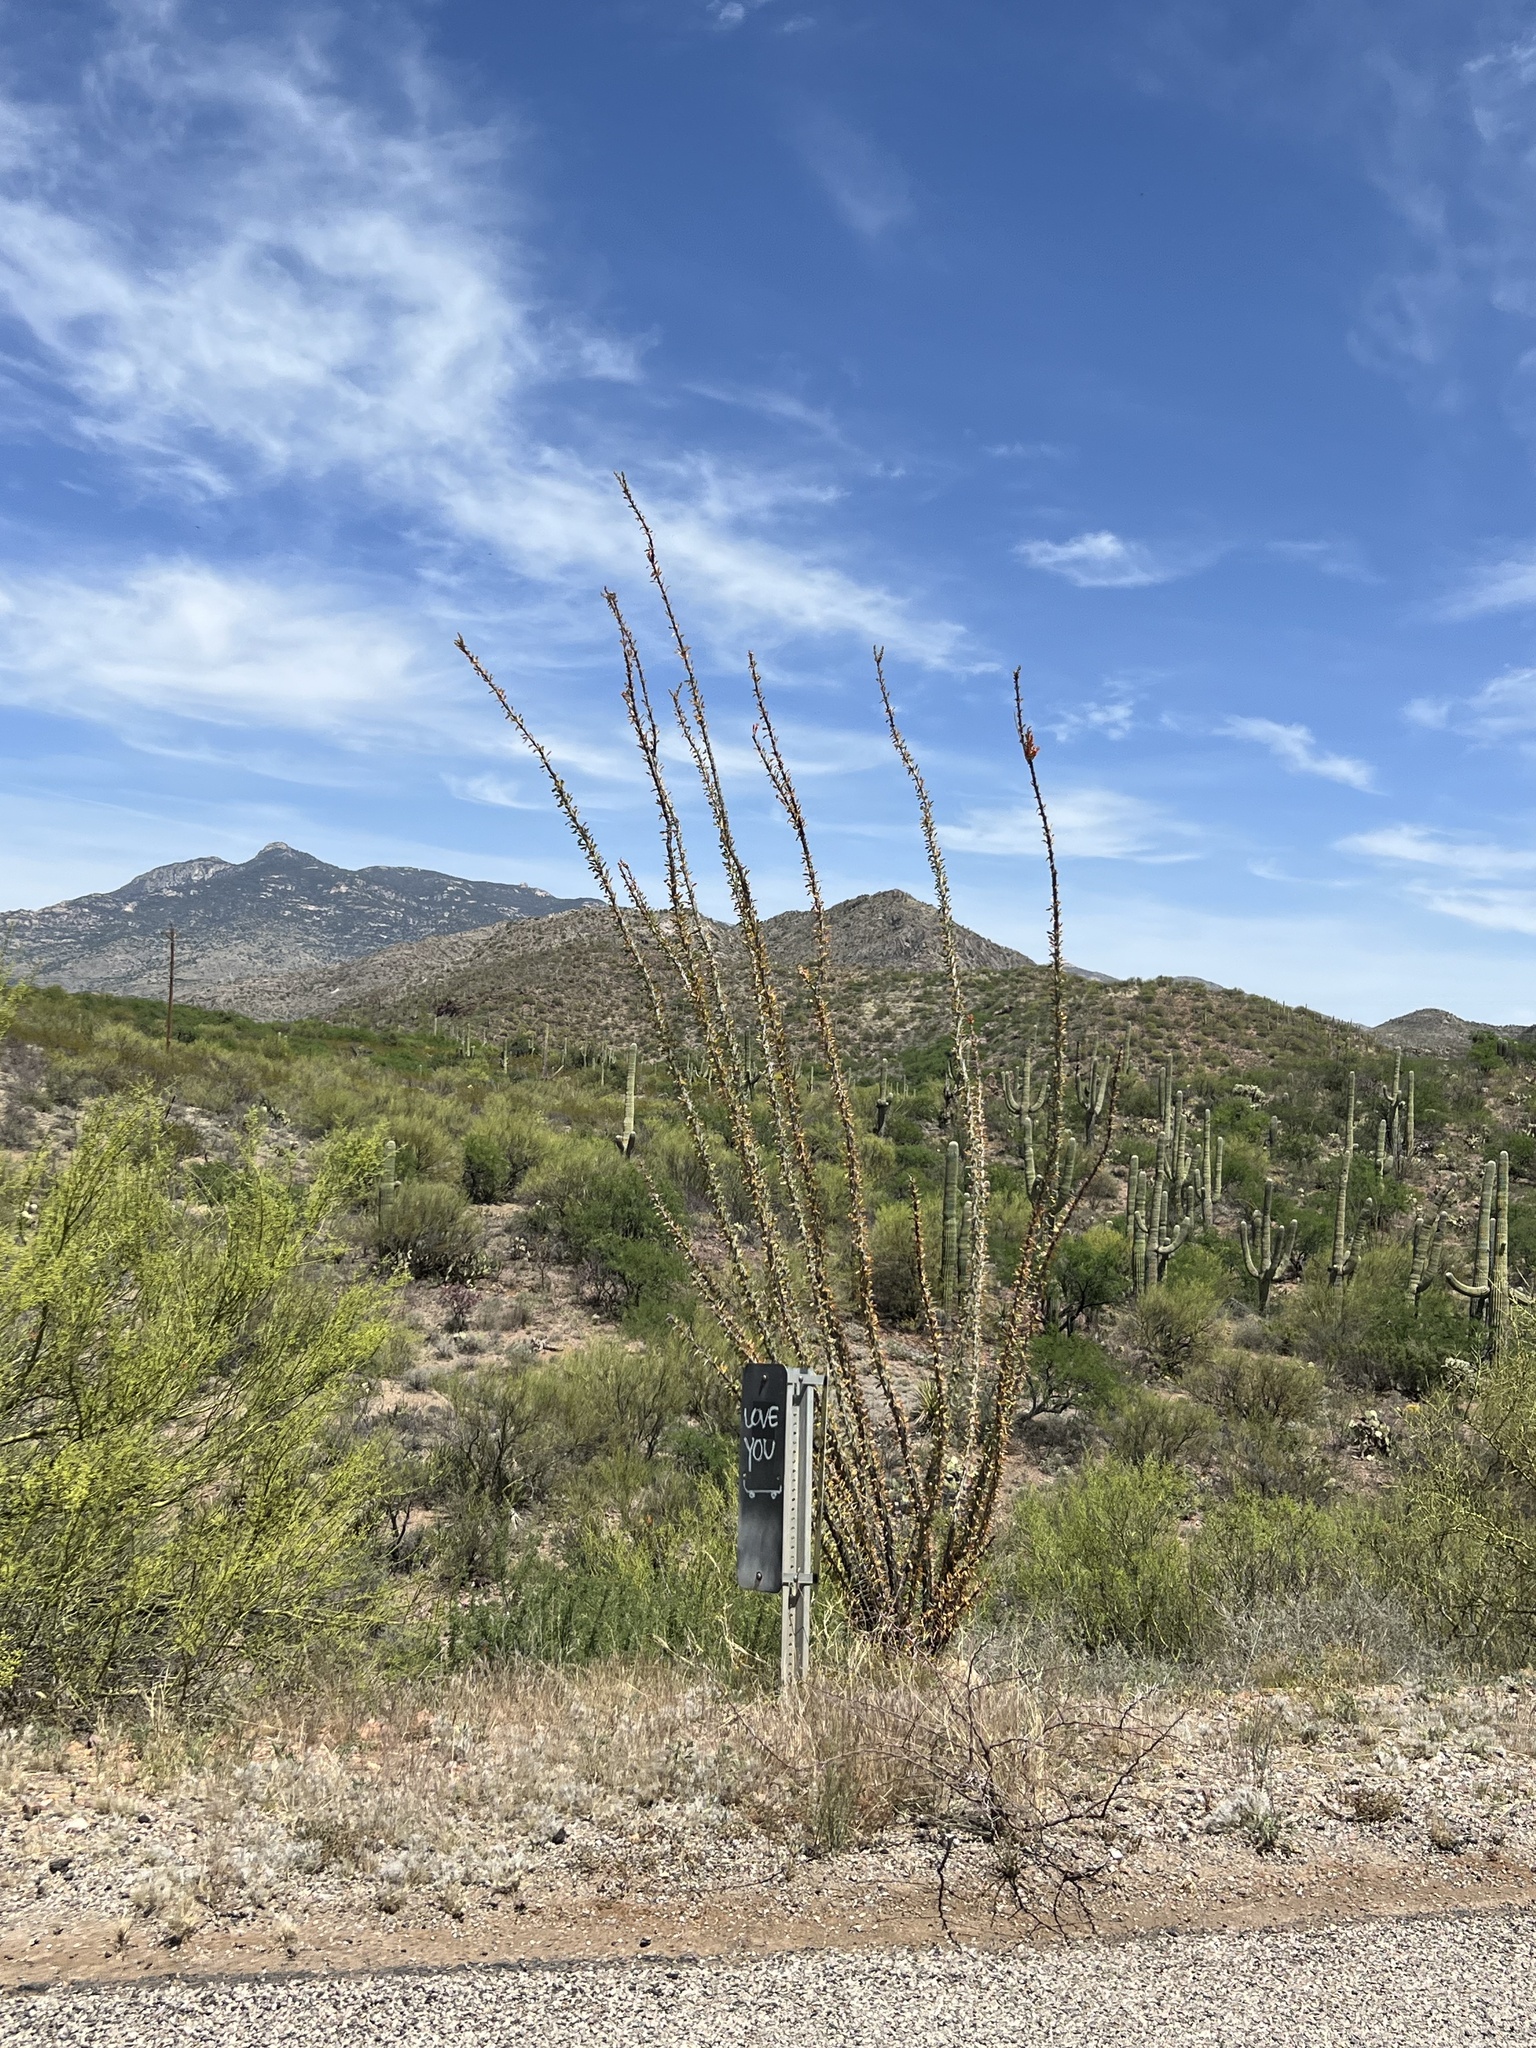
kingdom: Plantae
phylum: Tracheophyta
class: Magnoliopsida
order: Ericales
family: Fouquieriaceae
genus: Fouquieria
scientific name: Fouquieria splendens
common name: Vine-cactus
